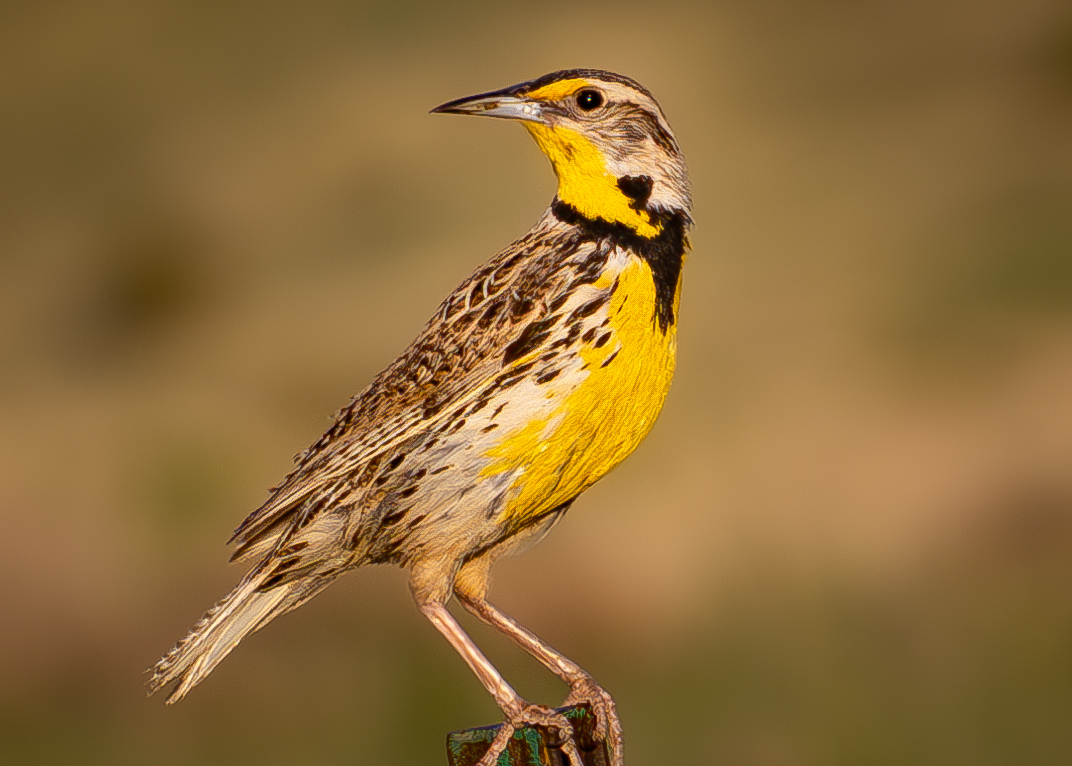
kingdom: Animalia
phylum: Chordata
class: Aves
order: Passeriformes
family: Icteridae
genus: Sturnella
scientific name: Sturnella neglecta
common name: Western meadowlark
